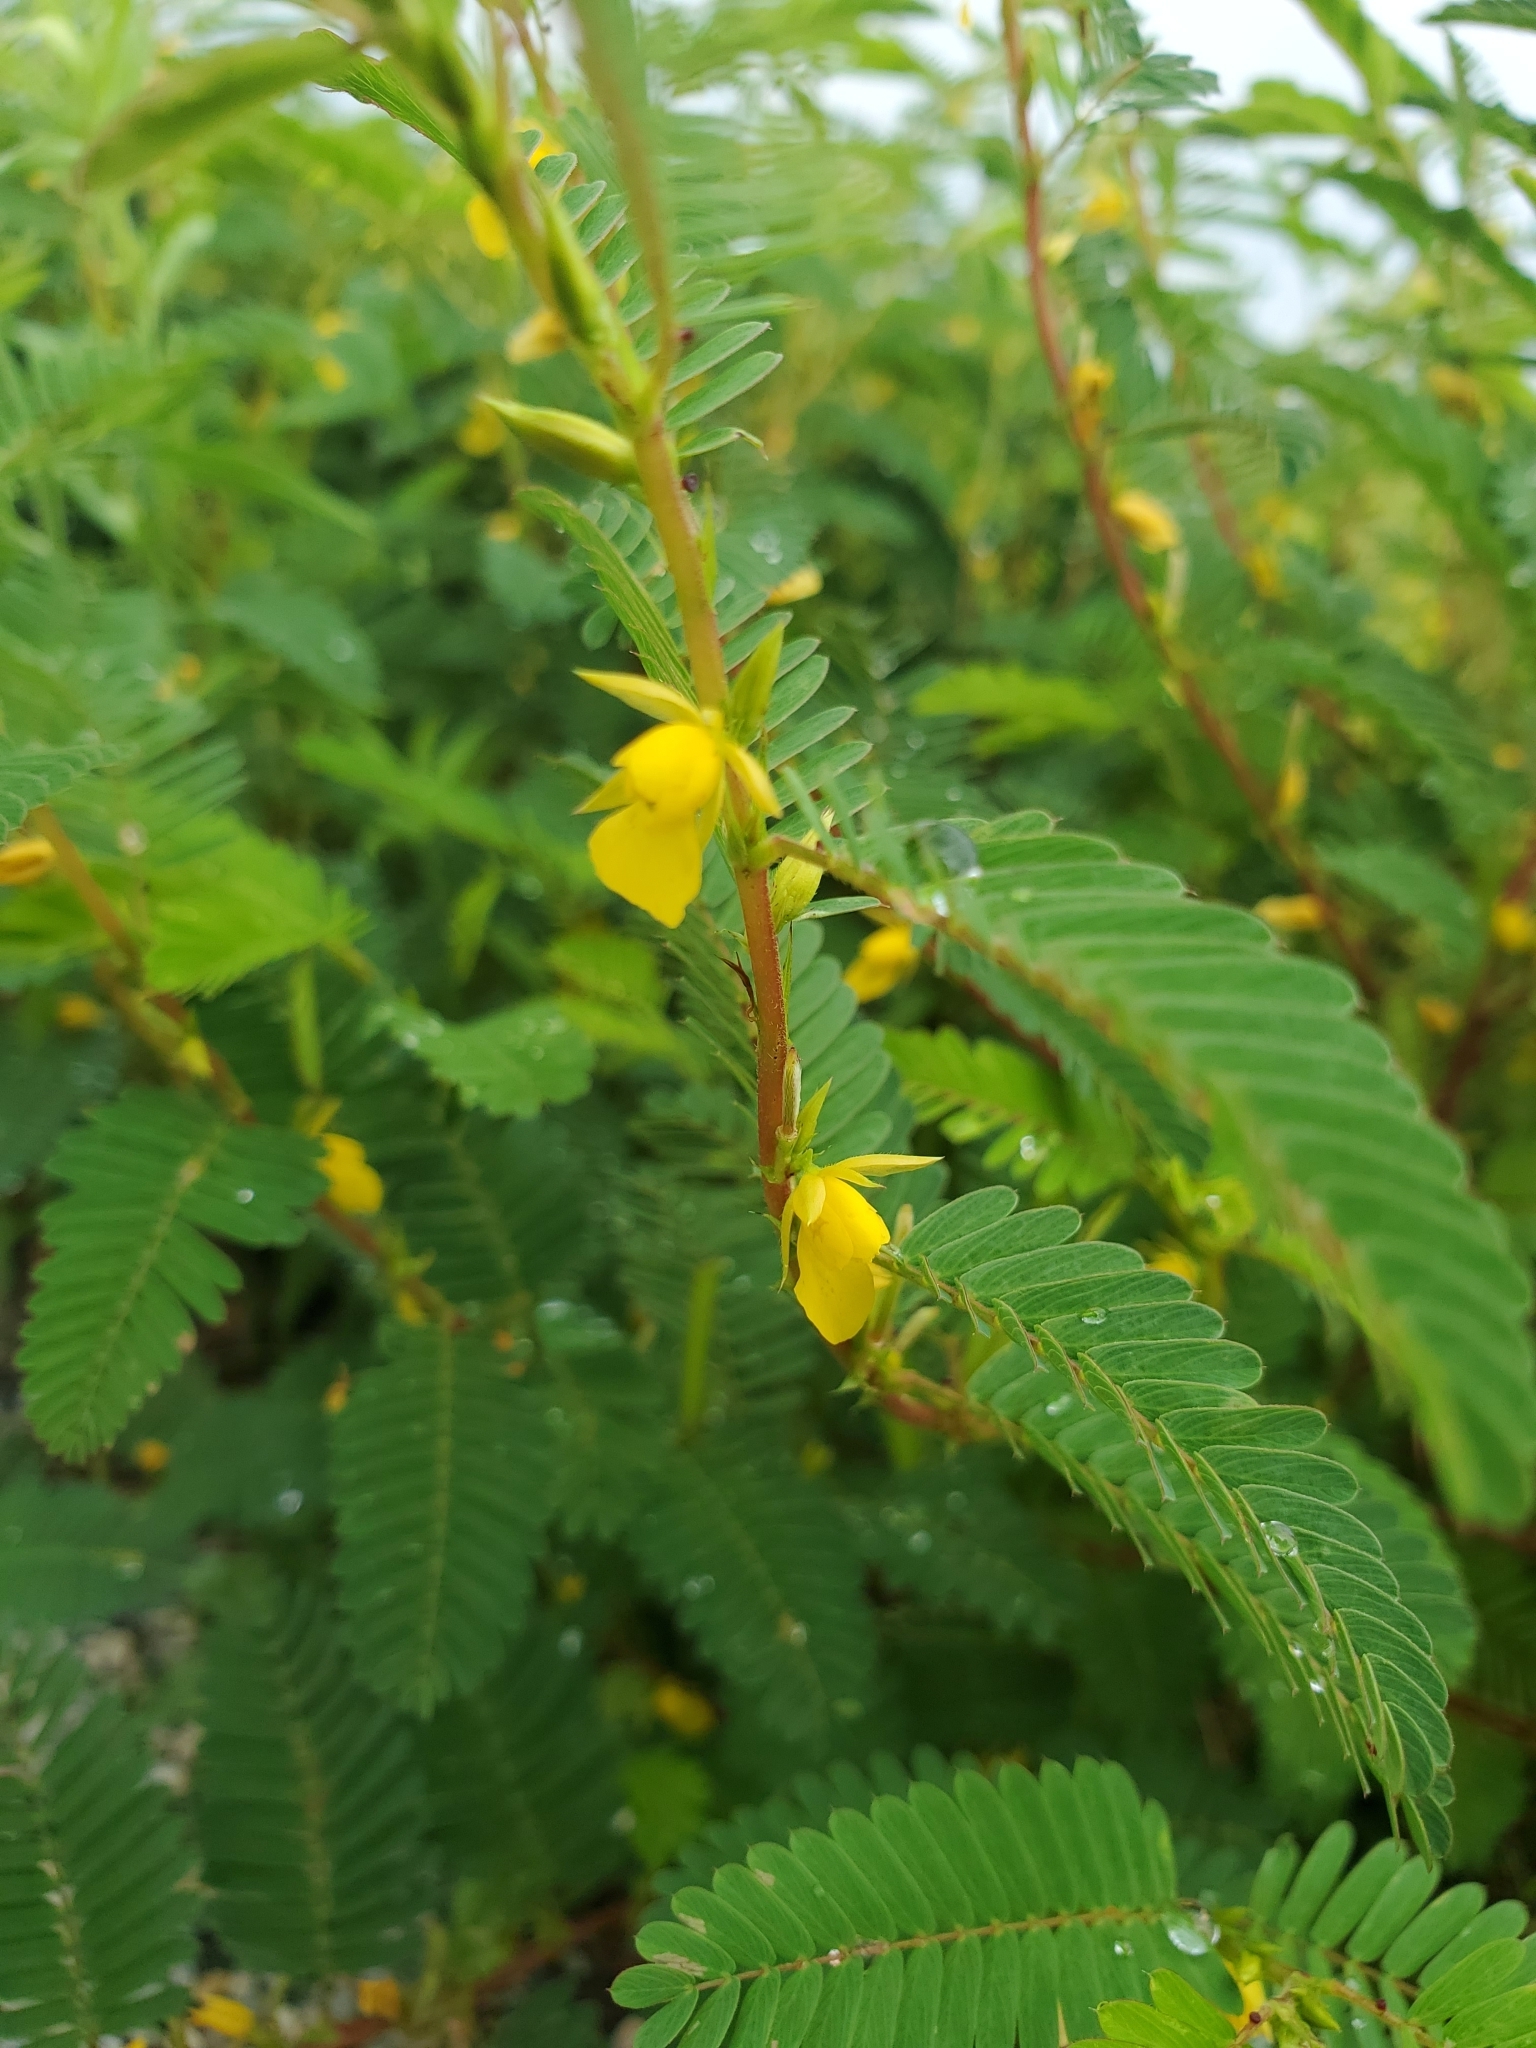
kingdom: Plantae
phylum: Tracheophyta
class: Magnoliopsida
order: Fabales
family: Fabaceae
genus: Chamaecrista
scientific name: Chamaecrista nictitans
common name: Sensitive cassia
